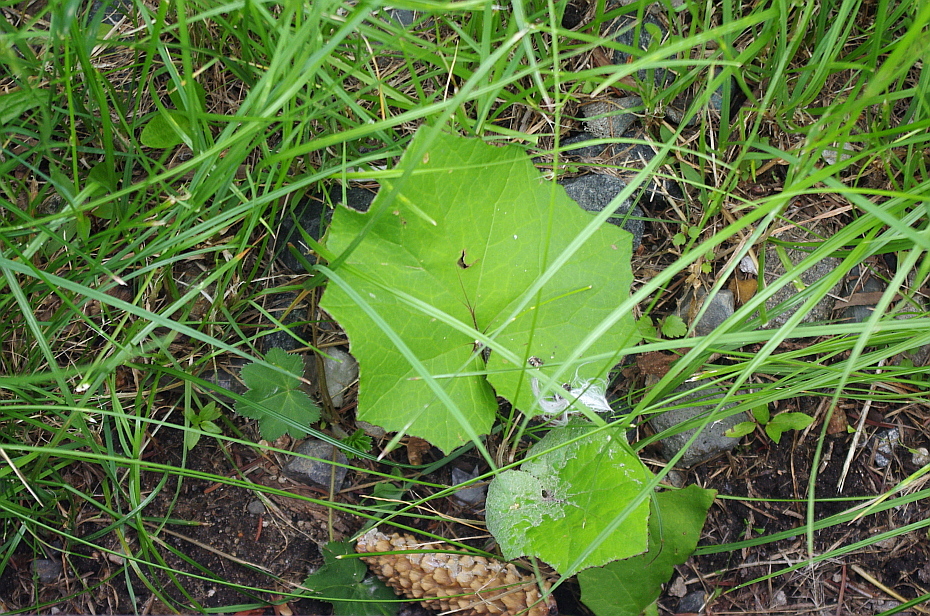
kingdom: Plantae
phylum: Tracheophyta
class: Magnoliopsida
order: Asterales
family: Asteraceae
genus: Tussilago
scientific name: Tussilago farfara
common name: Coltsfoot
